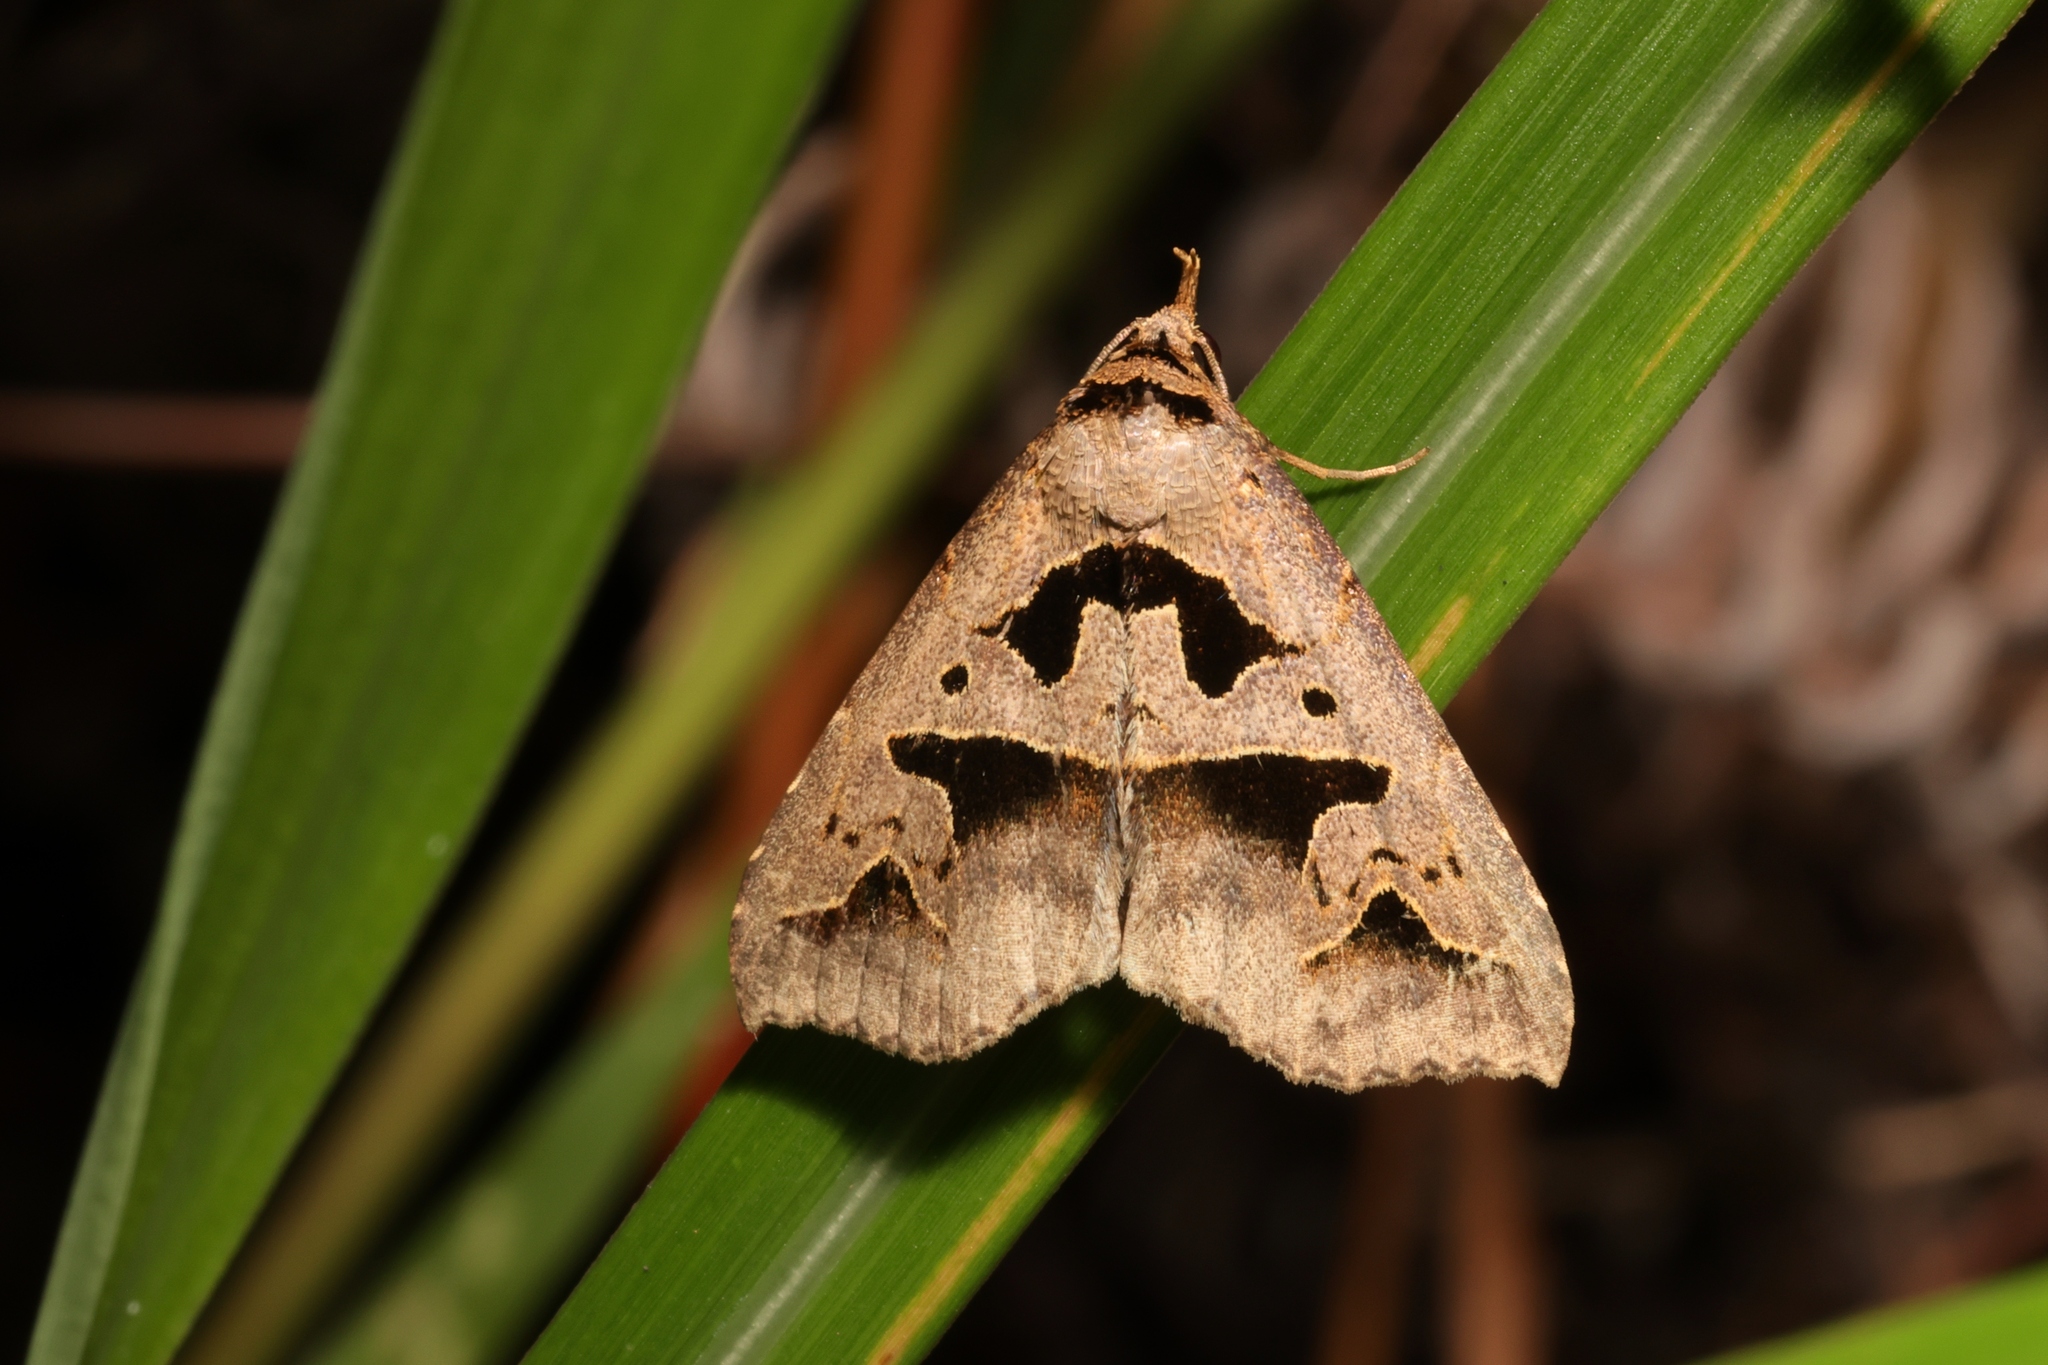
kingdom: Animalia
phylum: Arthropoda
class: Insecta
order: Lepidoptera
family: Erebidae
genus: Tephriopis
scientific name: Tephriopis divulsa
